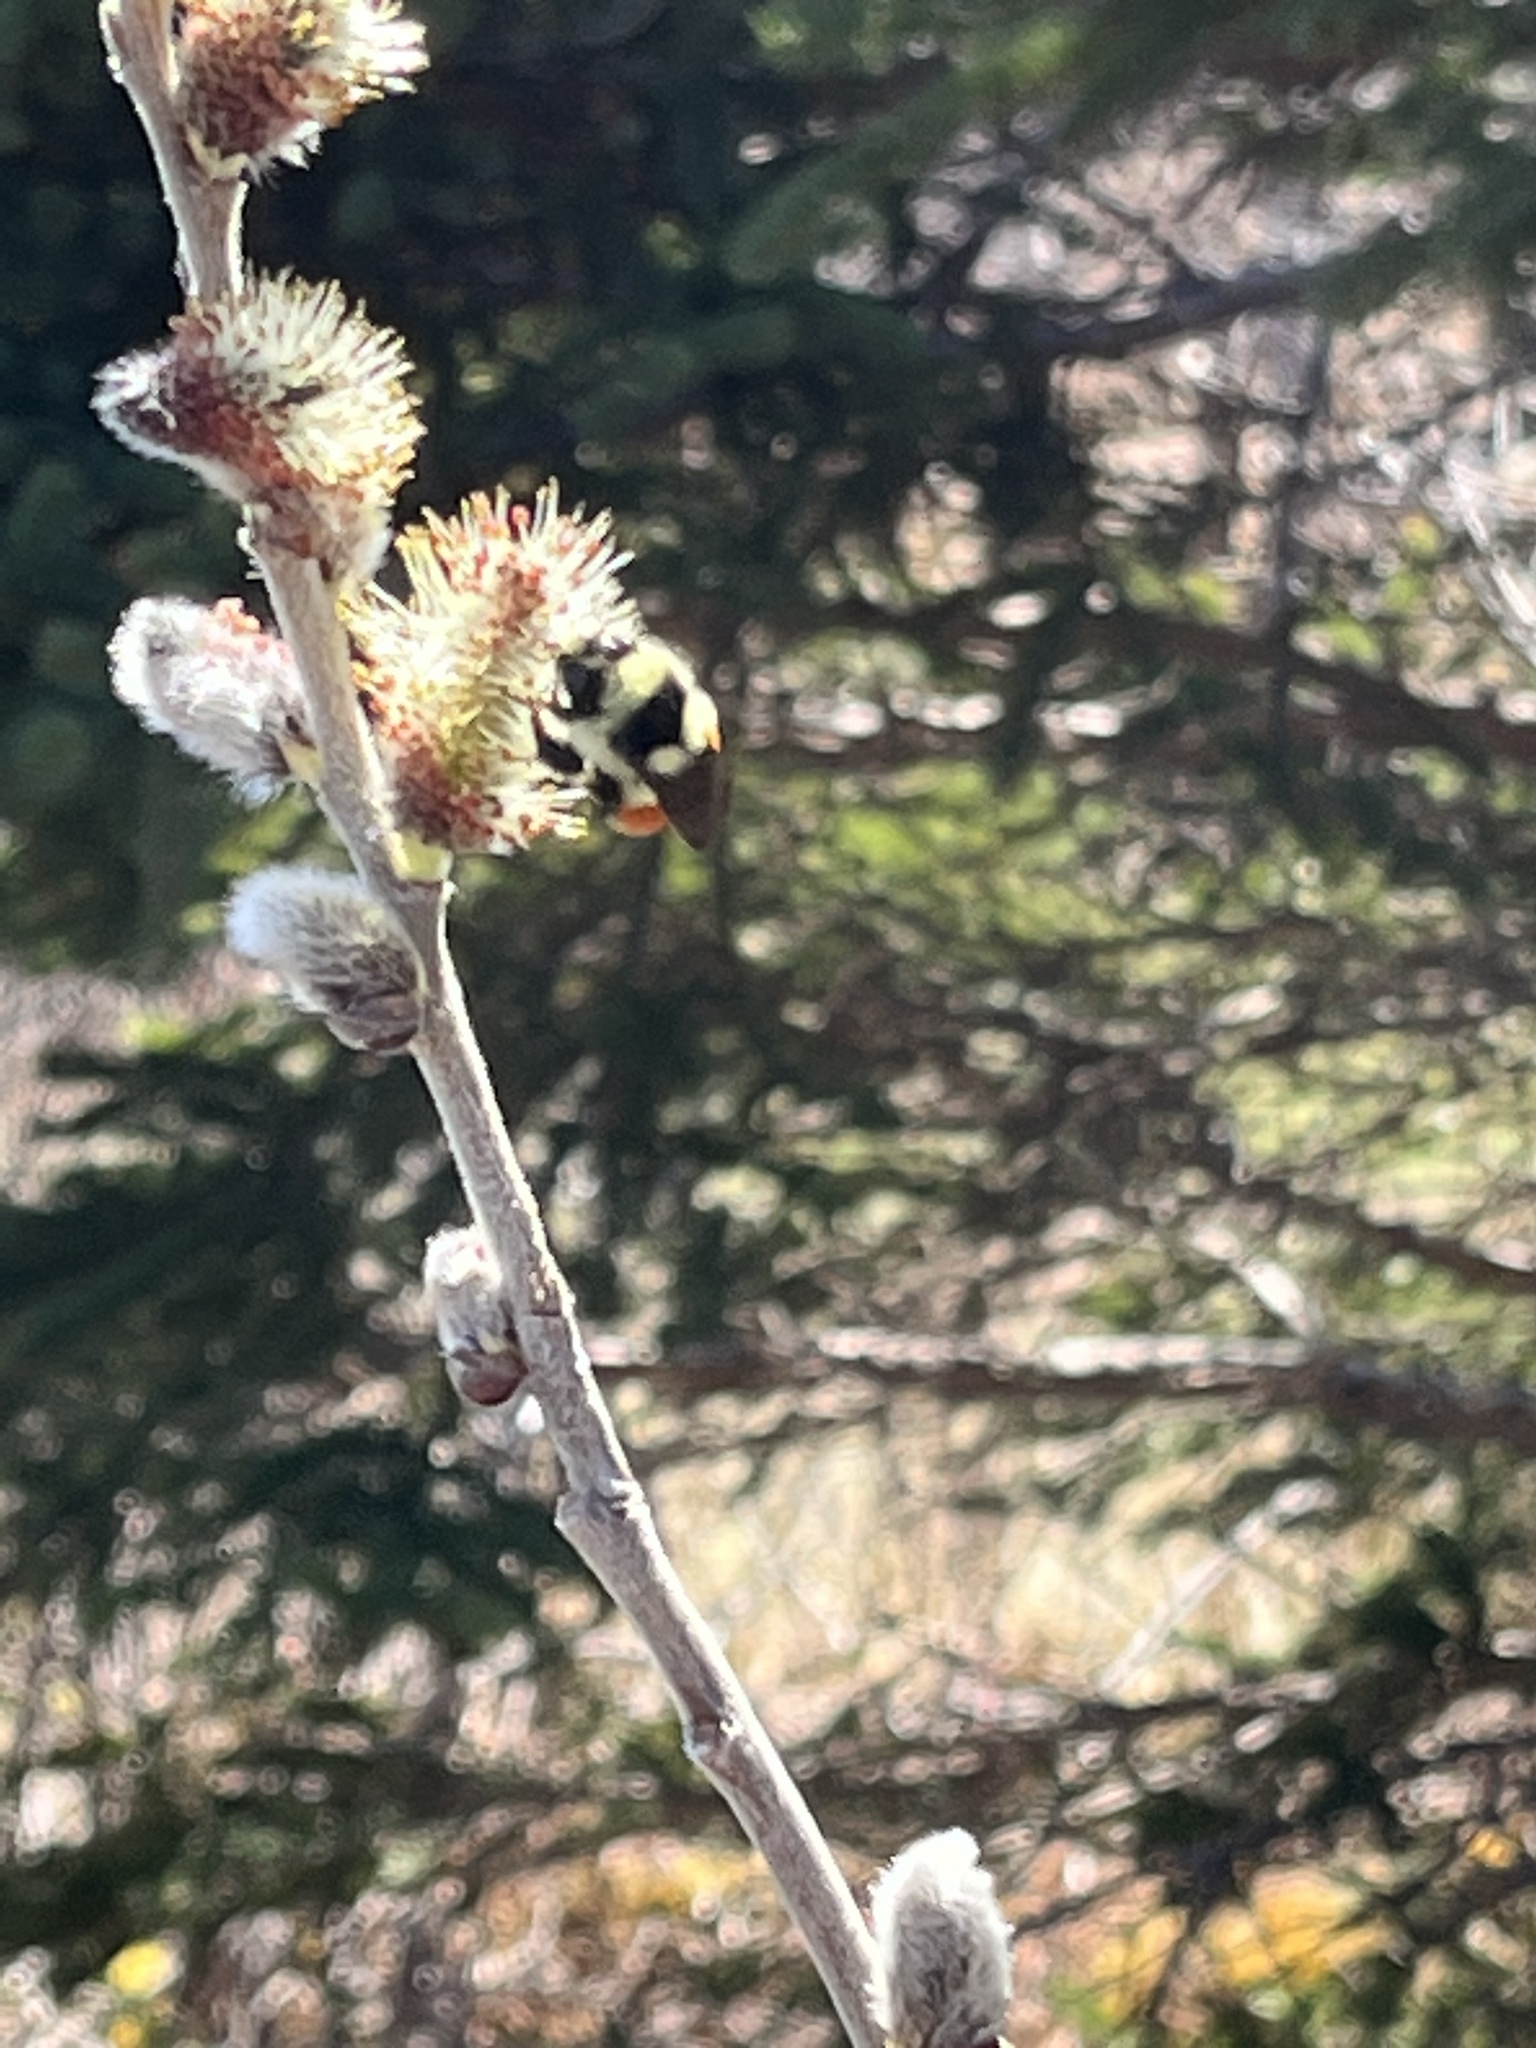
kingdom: Animalia
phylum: Arthropoda
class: Insecta
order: Hymenoptera
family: Apidae
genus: Bombus
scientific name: Bombus ternarius
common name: Tri-colored bumble bee
